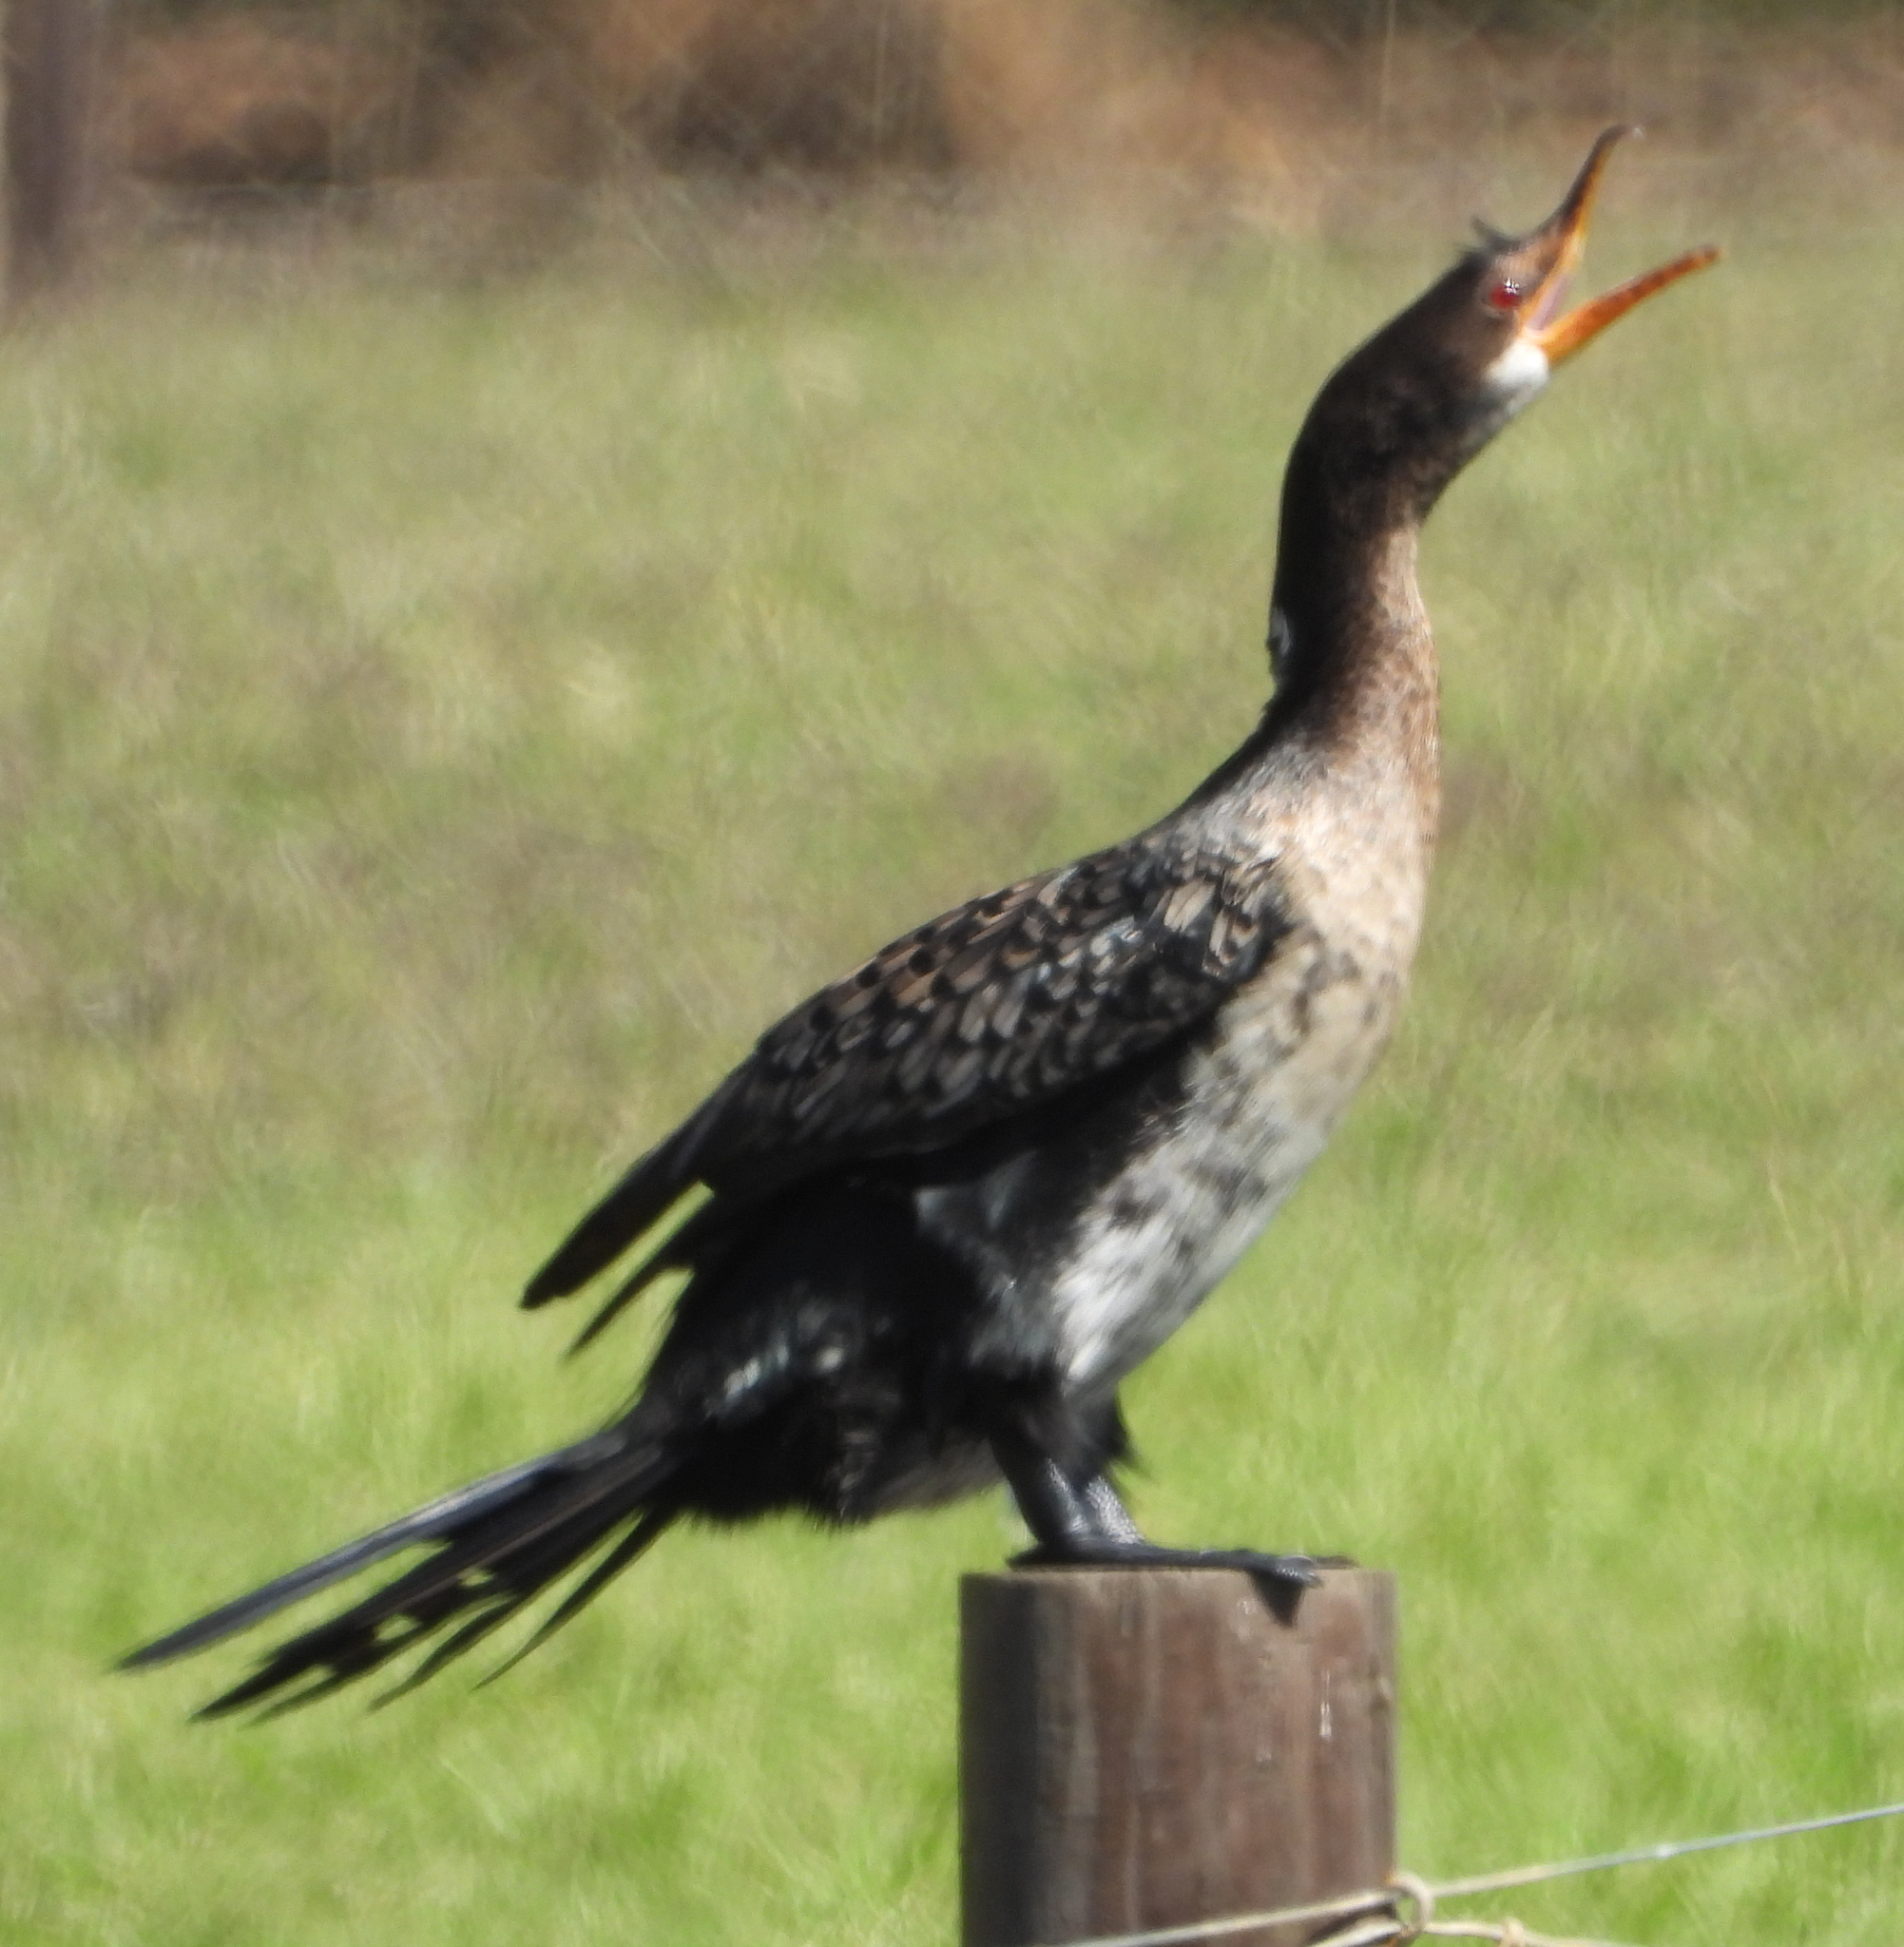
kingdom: Animalia
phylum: Chordata
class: Aves
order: Suliformes
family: Phalacrocoracidae
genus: Microcarbo
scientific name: Microcarbo africanus
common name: Long-tailed cormorant
